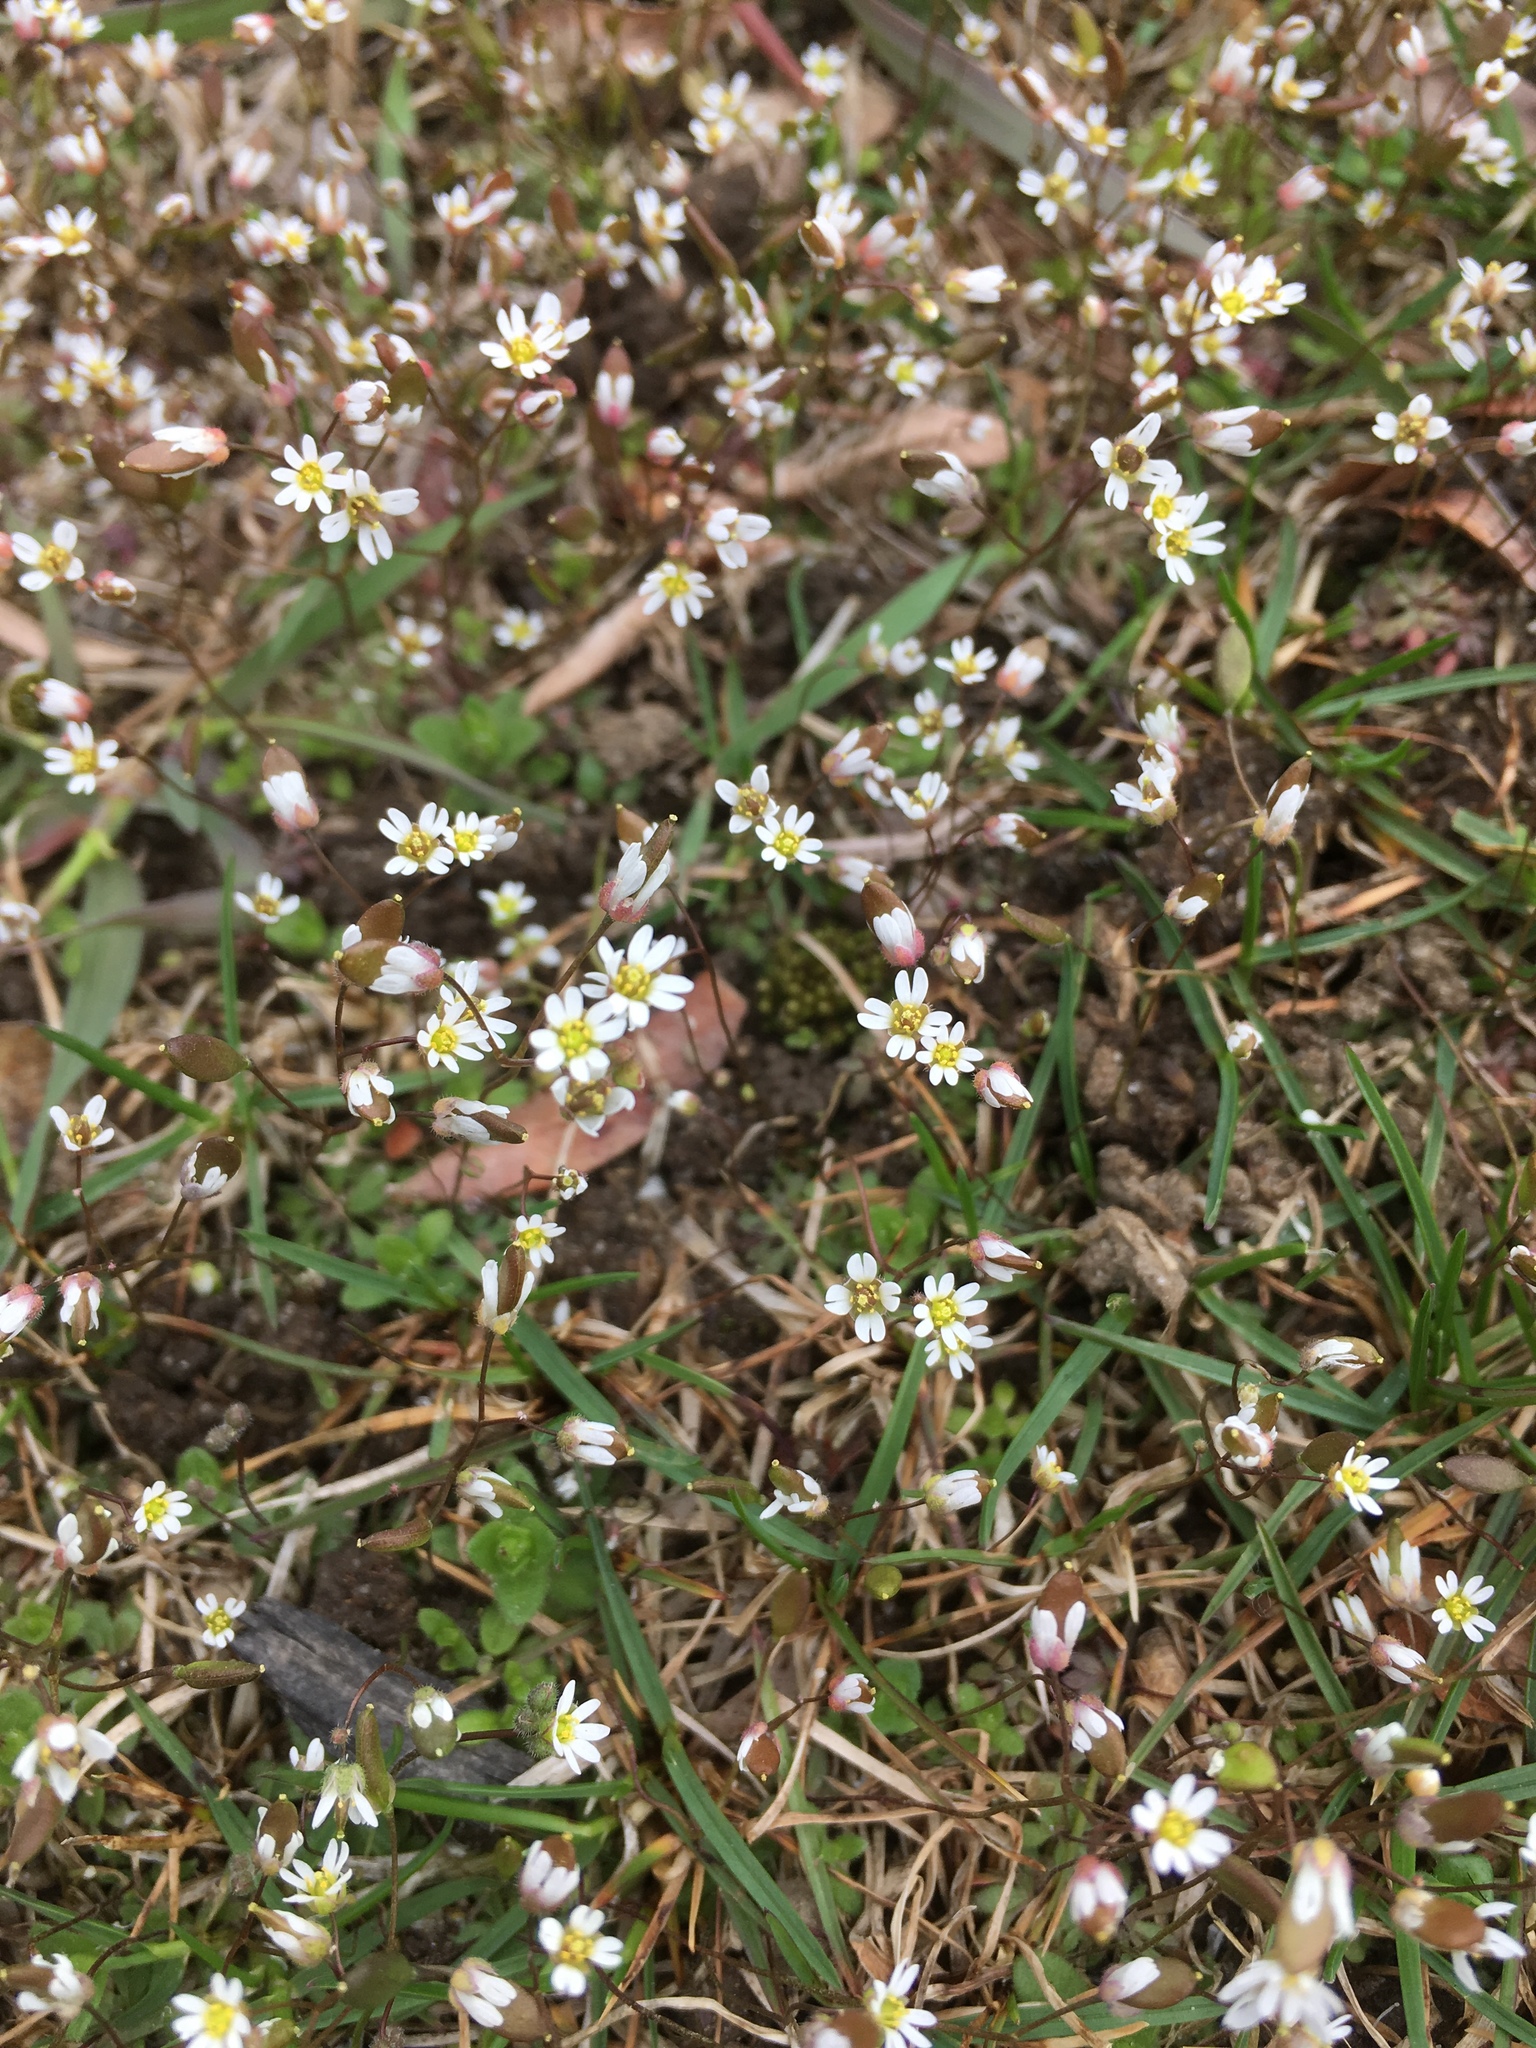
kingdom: Plantae
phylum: Tracheophyta
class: Magnoliopsida
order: Brassicales
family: Brassicaceae
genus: Draba
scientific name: Draba verna
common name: Spring draba
